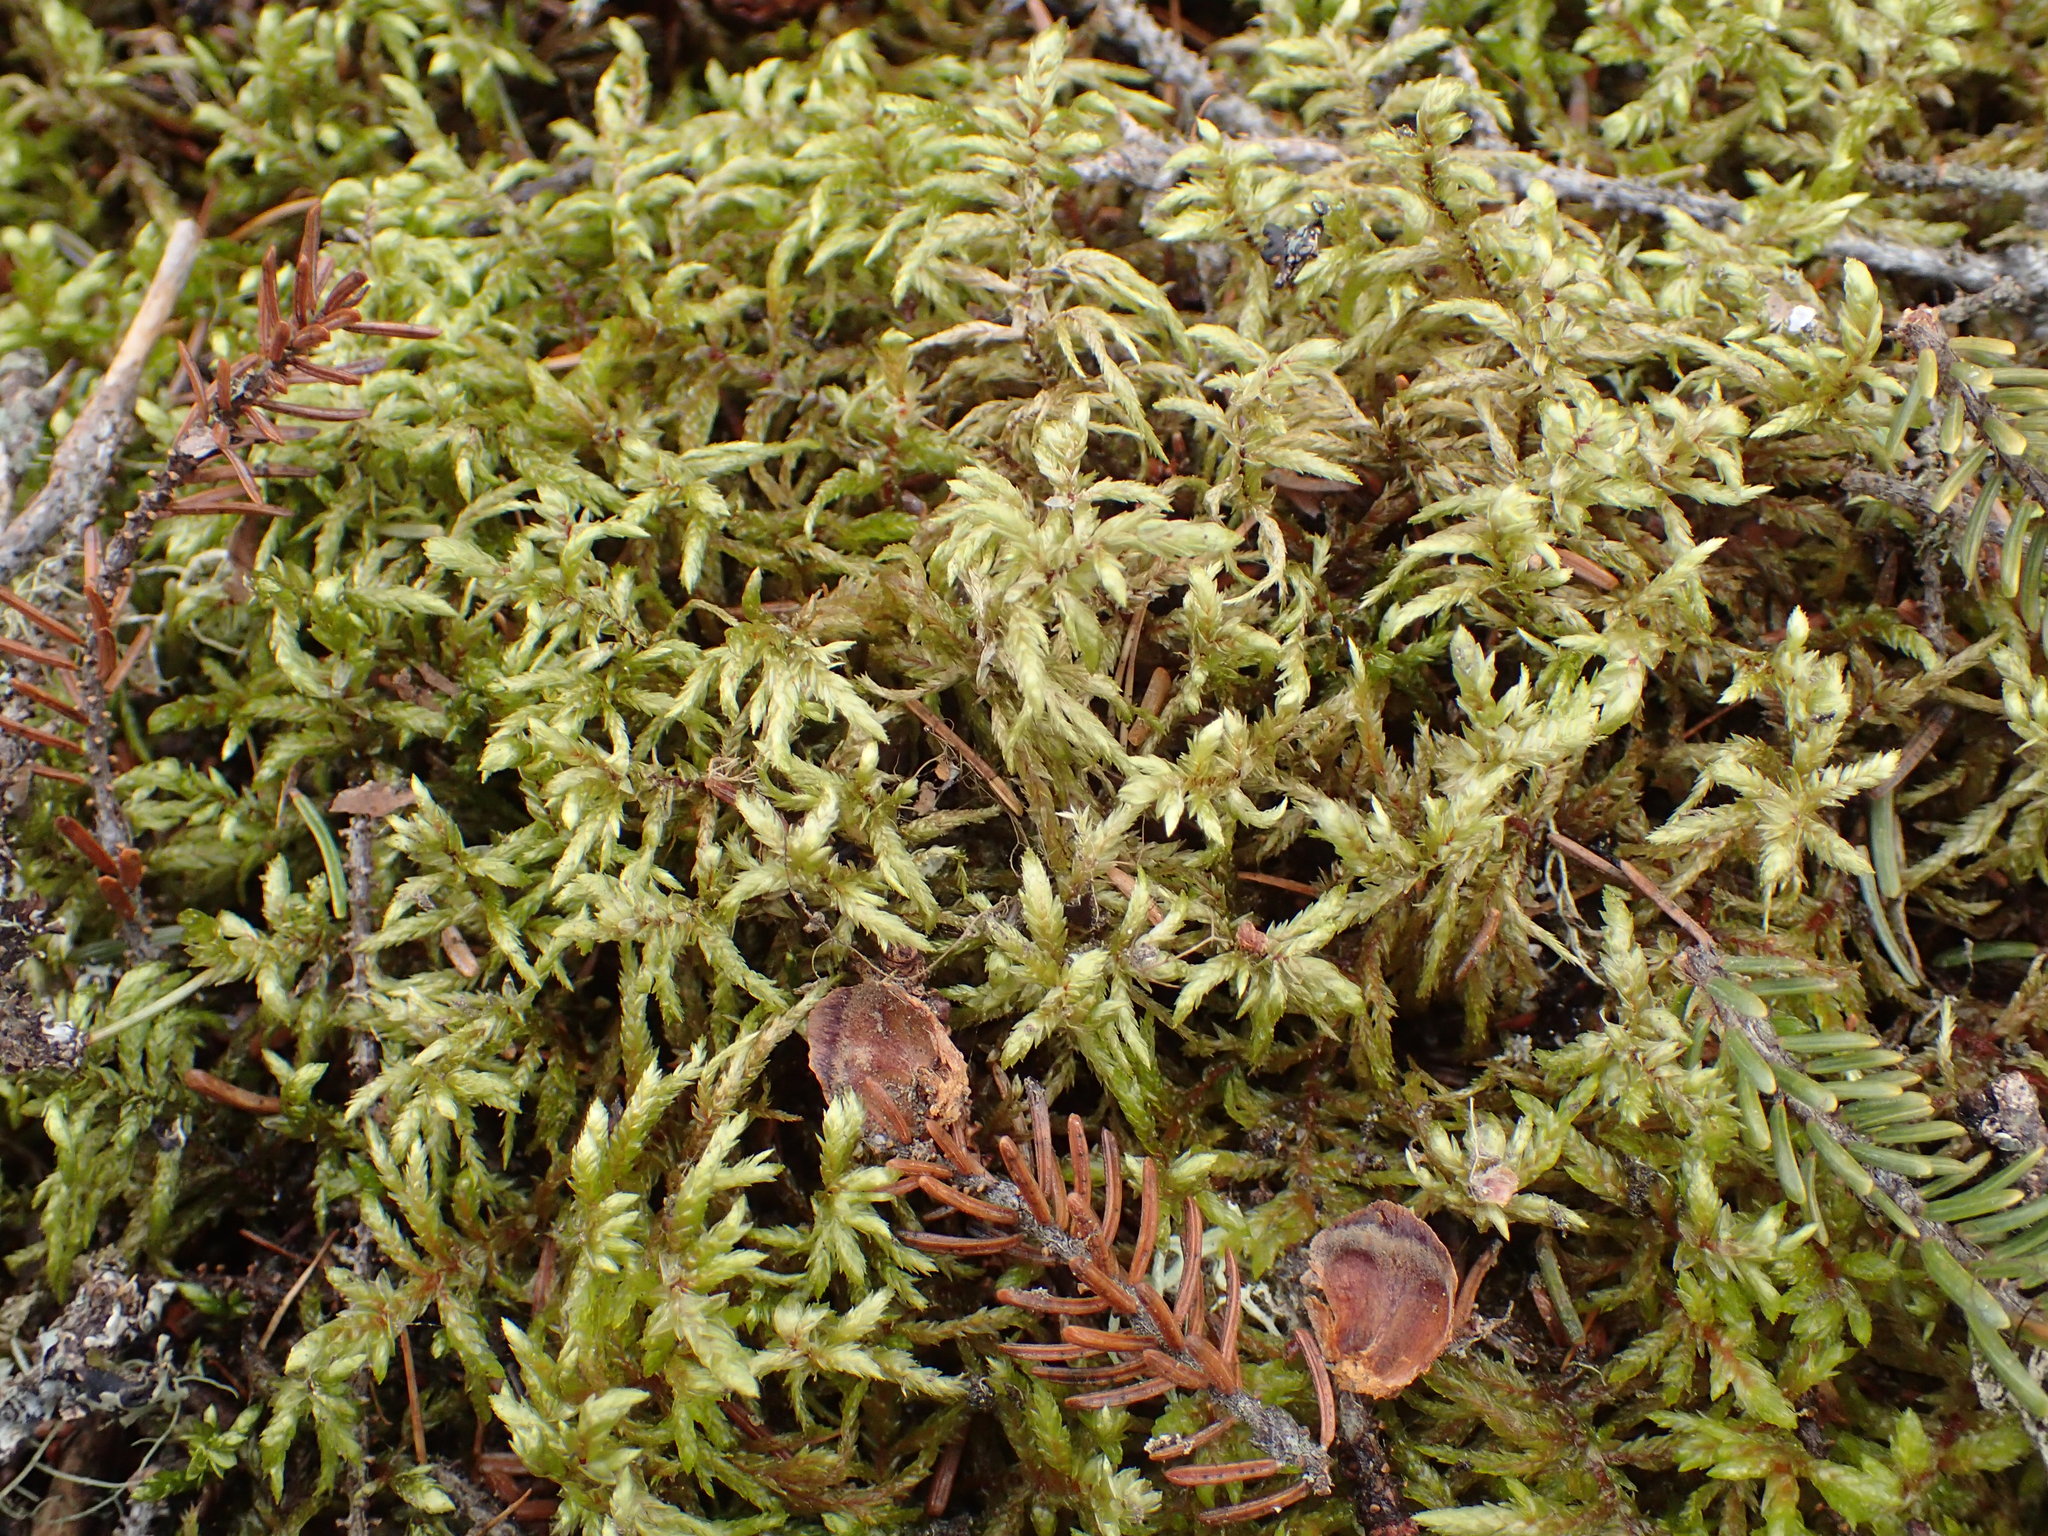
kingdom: Plantae
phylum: Bryophyta
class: Bryopsida
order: Hypnales
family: Hylocomiaceae
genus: Pleurozium
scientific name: Pleurozium schreberi
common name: Red-stemmed feather moss
